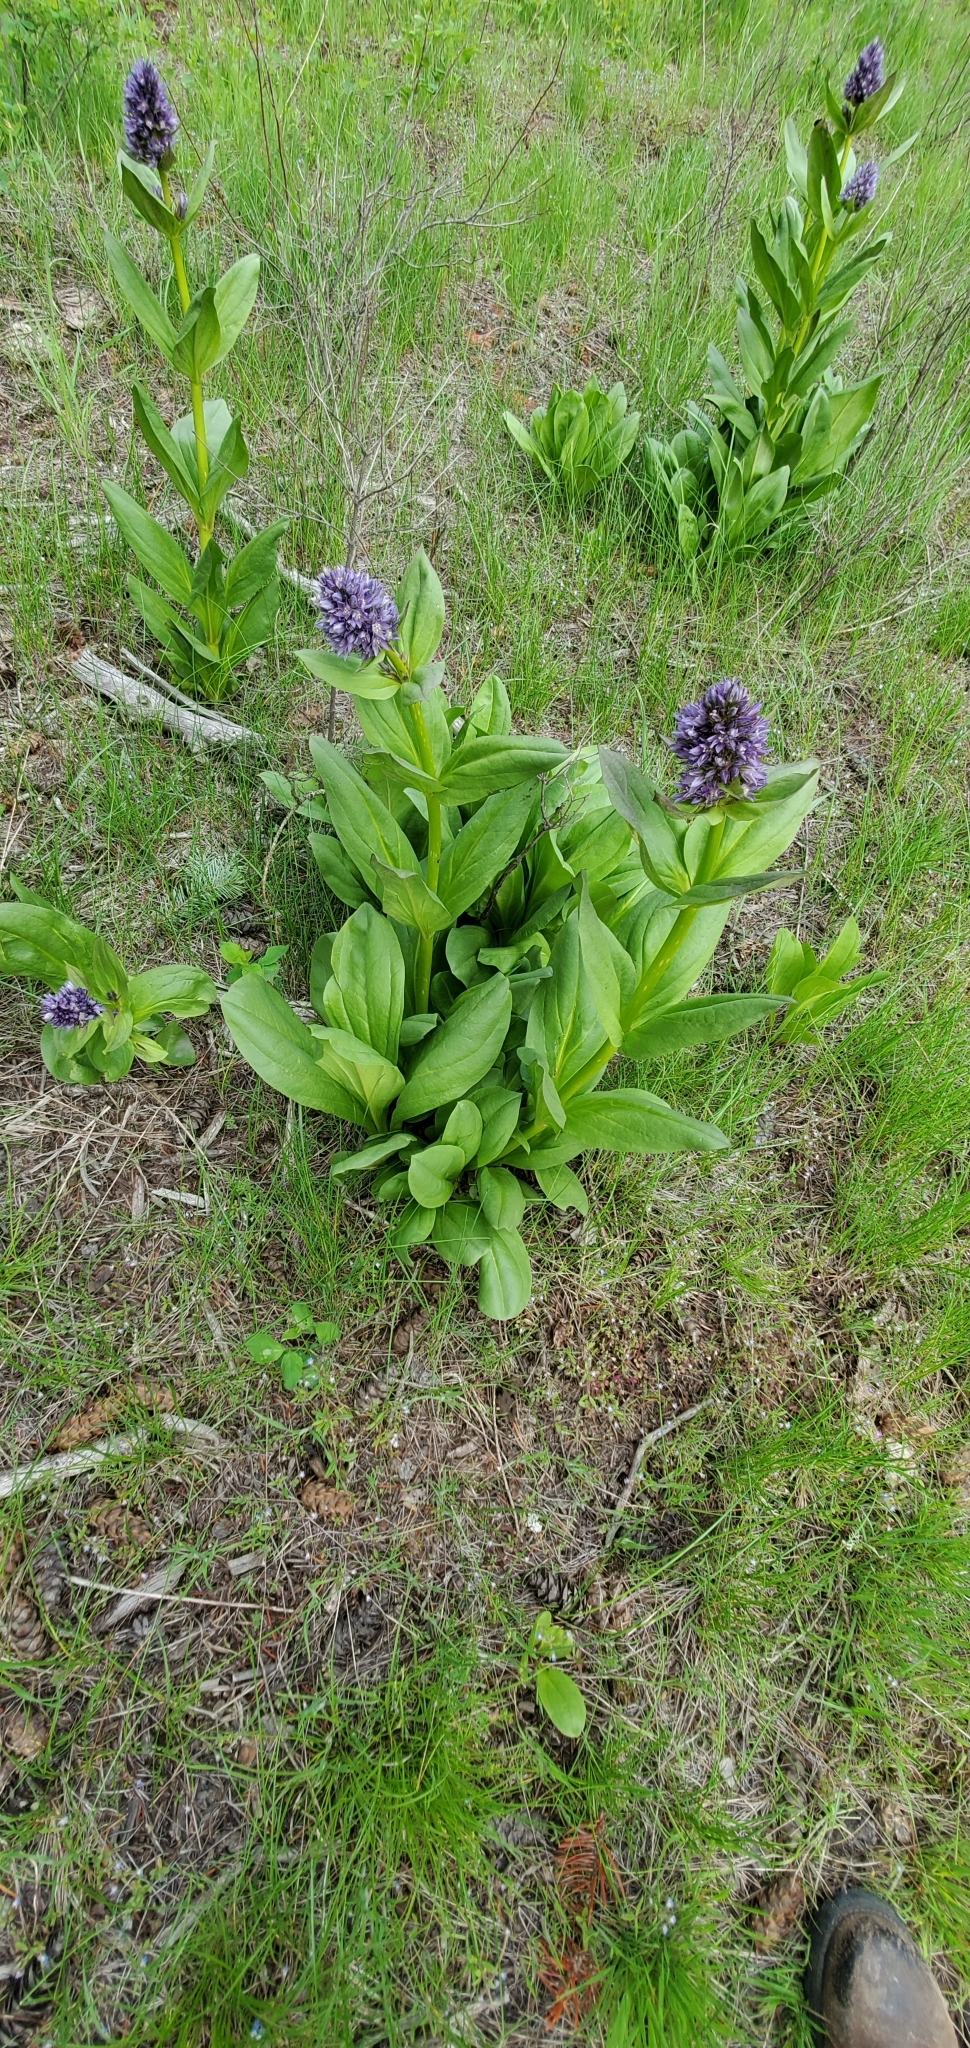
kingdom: Plantae
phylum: Tracheophyta
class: Magnoliopsida
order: Gentianales
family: Gentianaceae
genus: Frasera
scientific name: Frasera fastigiata
